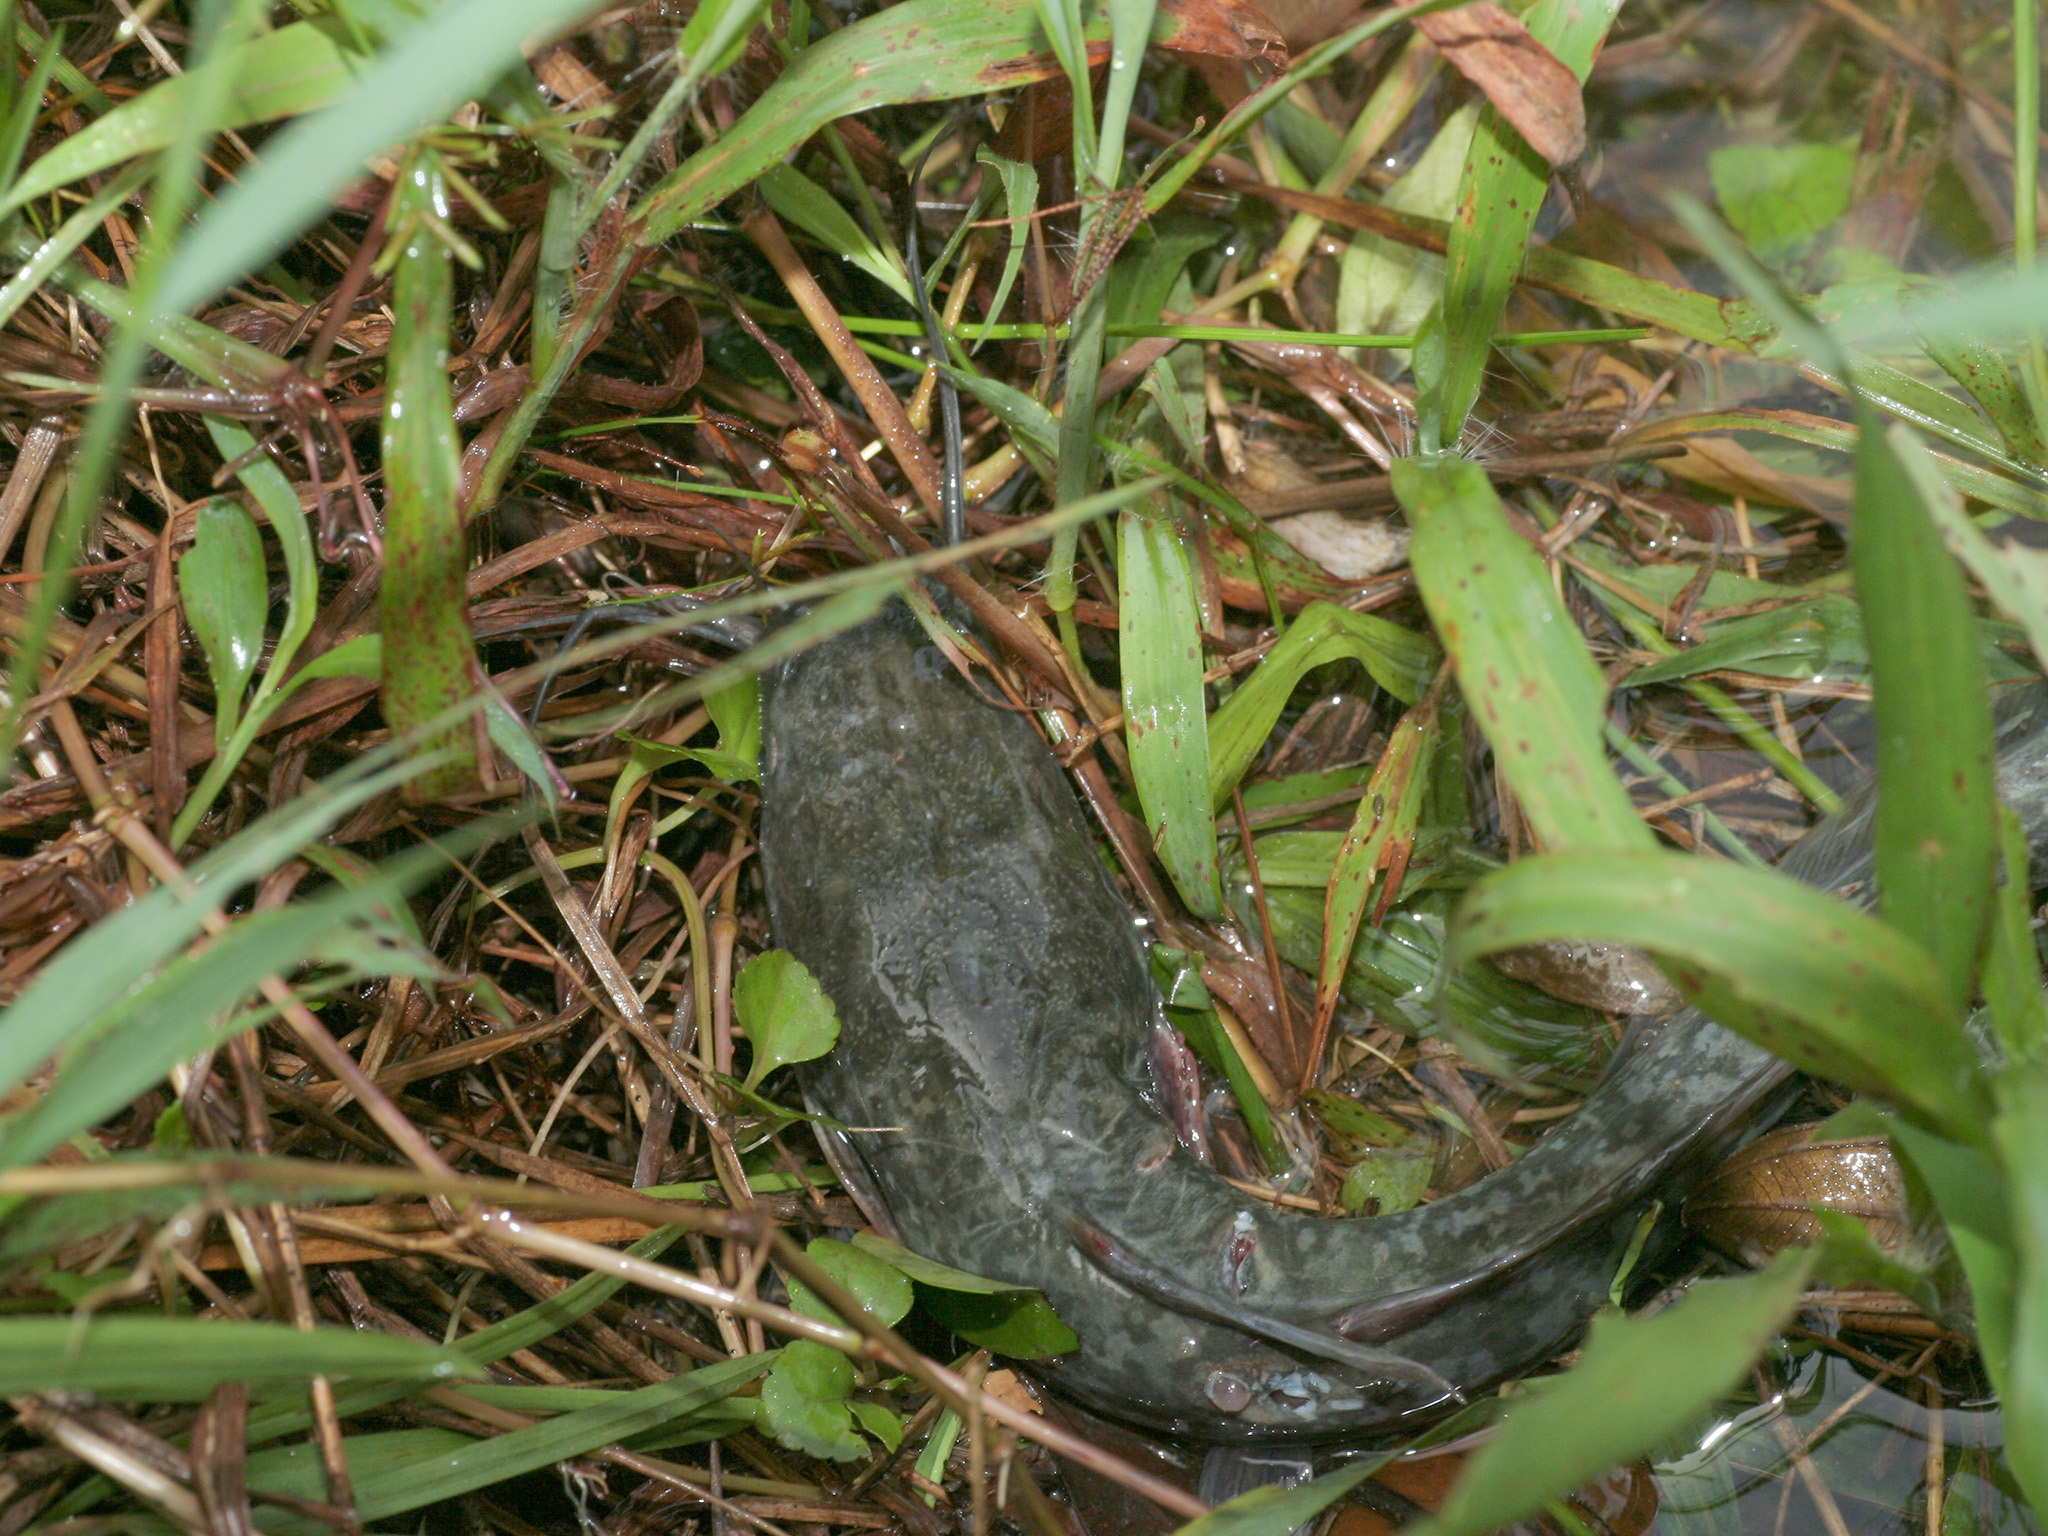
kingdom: Animalia
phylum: Chordata
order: Siluriformes
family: Clariidae
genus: Clarias
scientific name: Clarias gariepinus
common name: African catfish
